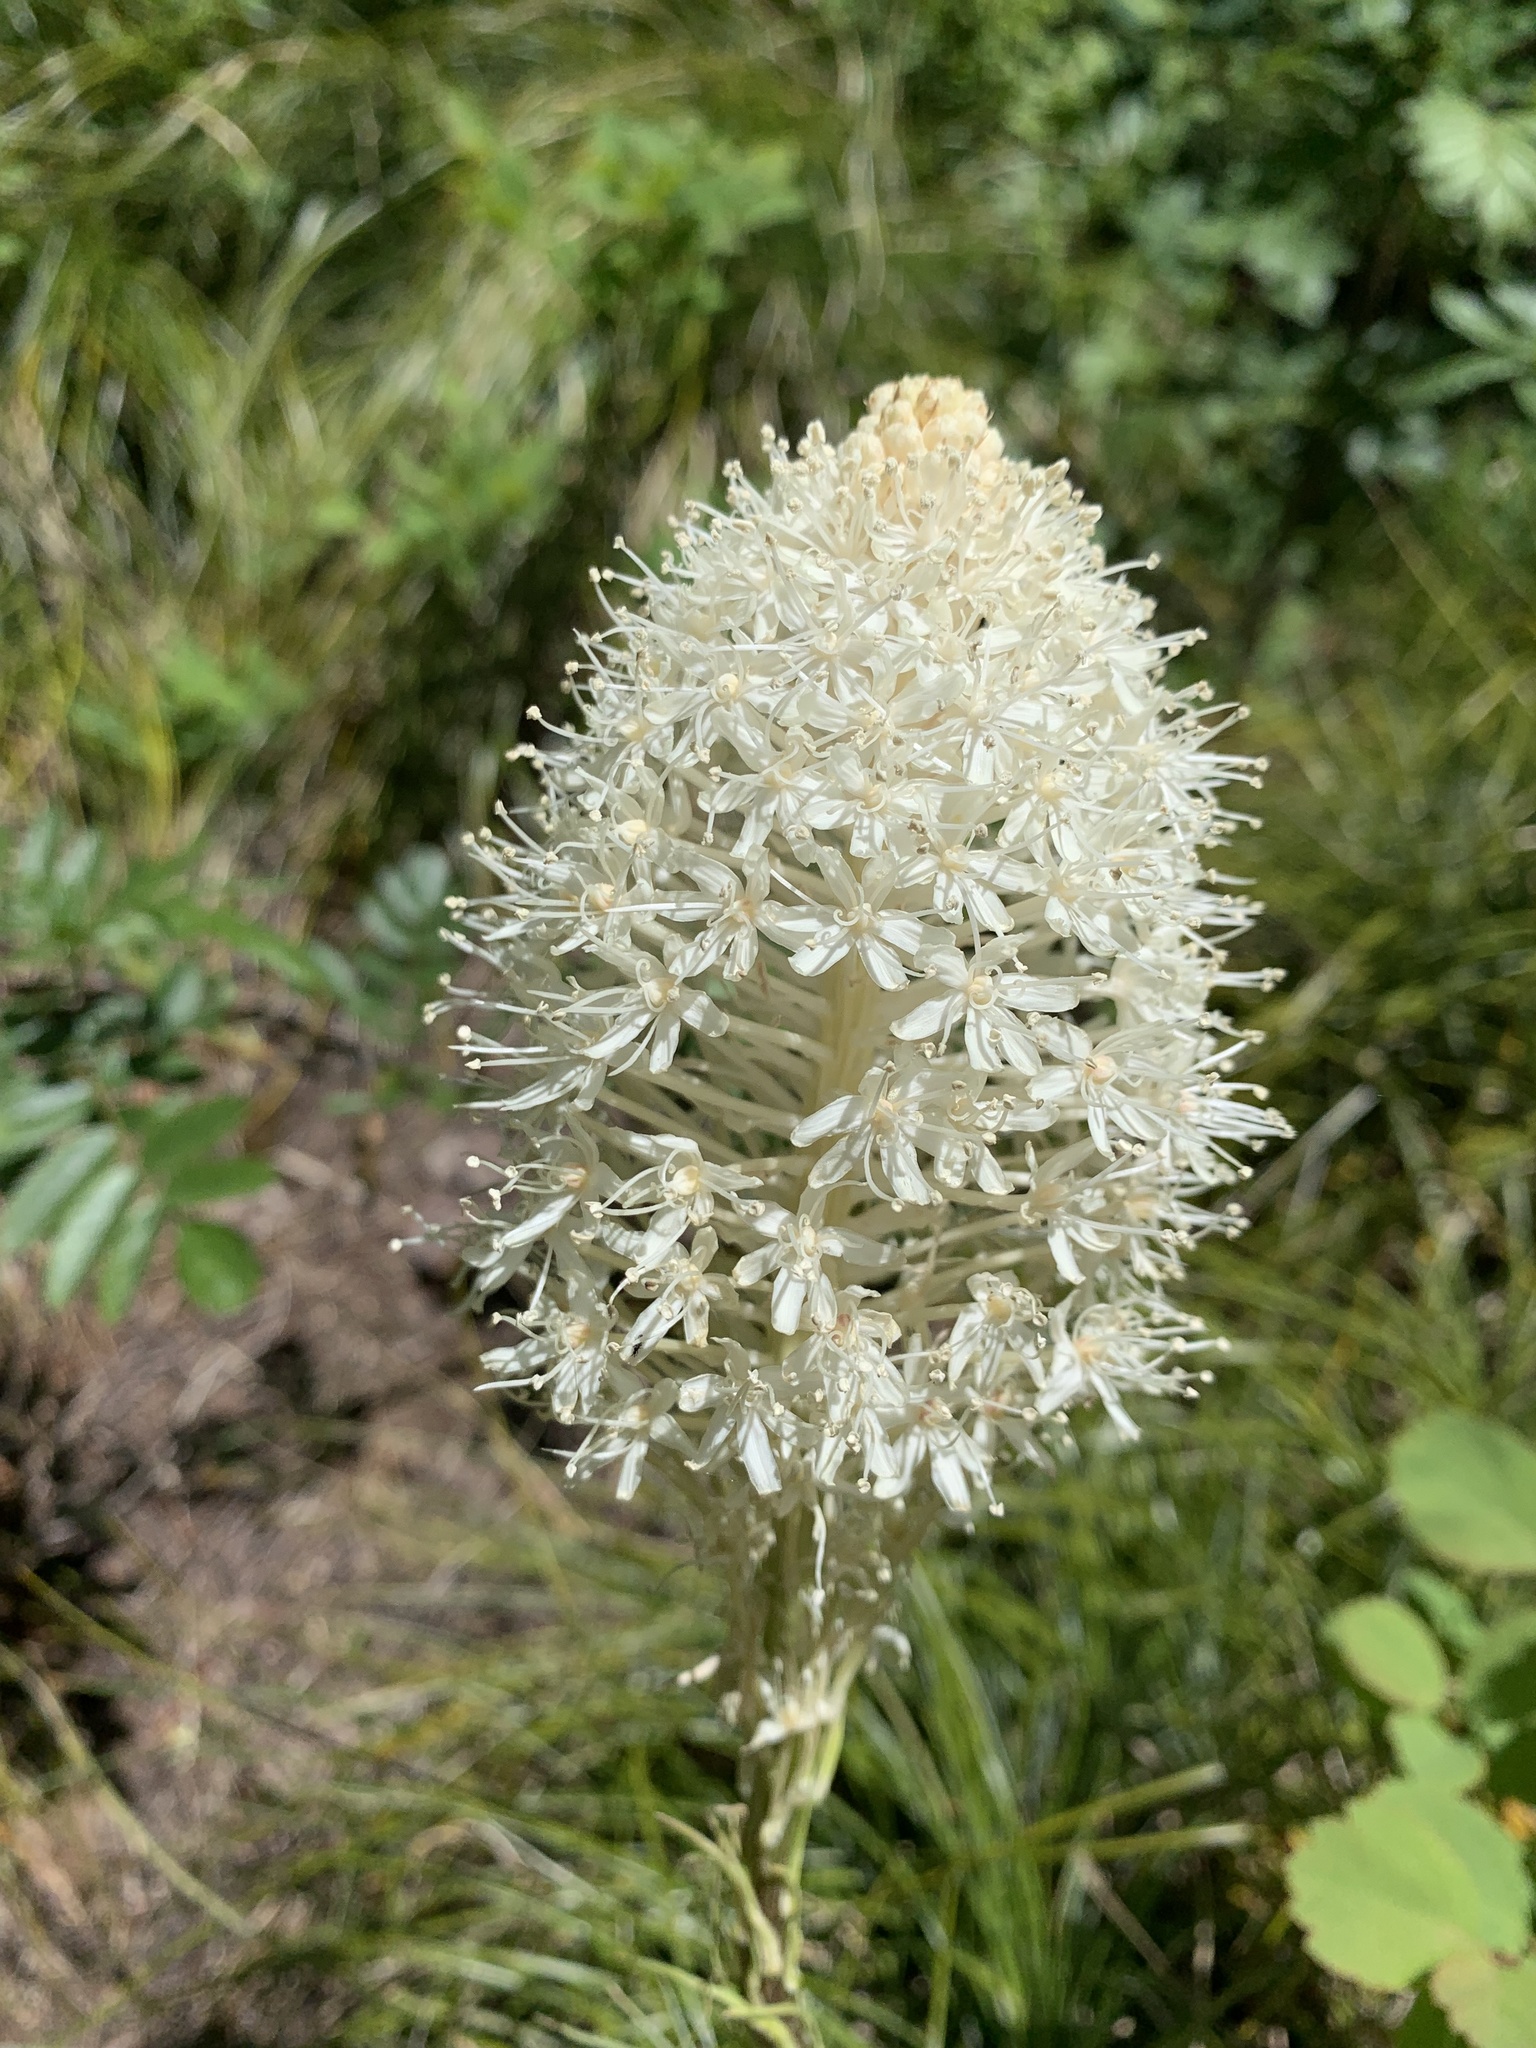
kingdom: Plantae
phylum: Tracheophyta
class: Liliopsida
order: Liliales
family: Melanthiaceae
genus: Xerophyllum
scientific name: Xerophyllum tenax
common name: Bear-grass
